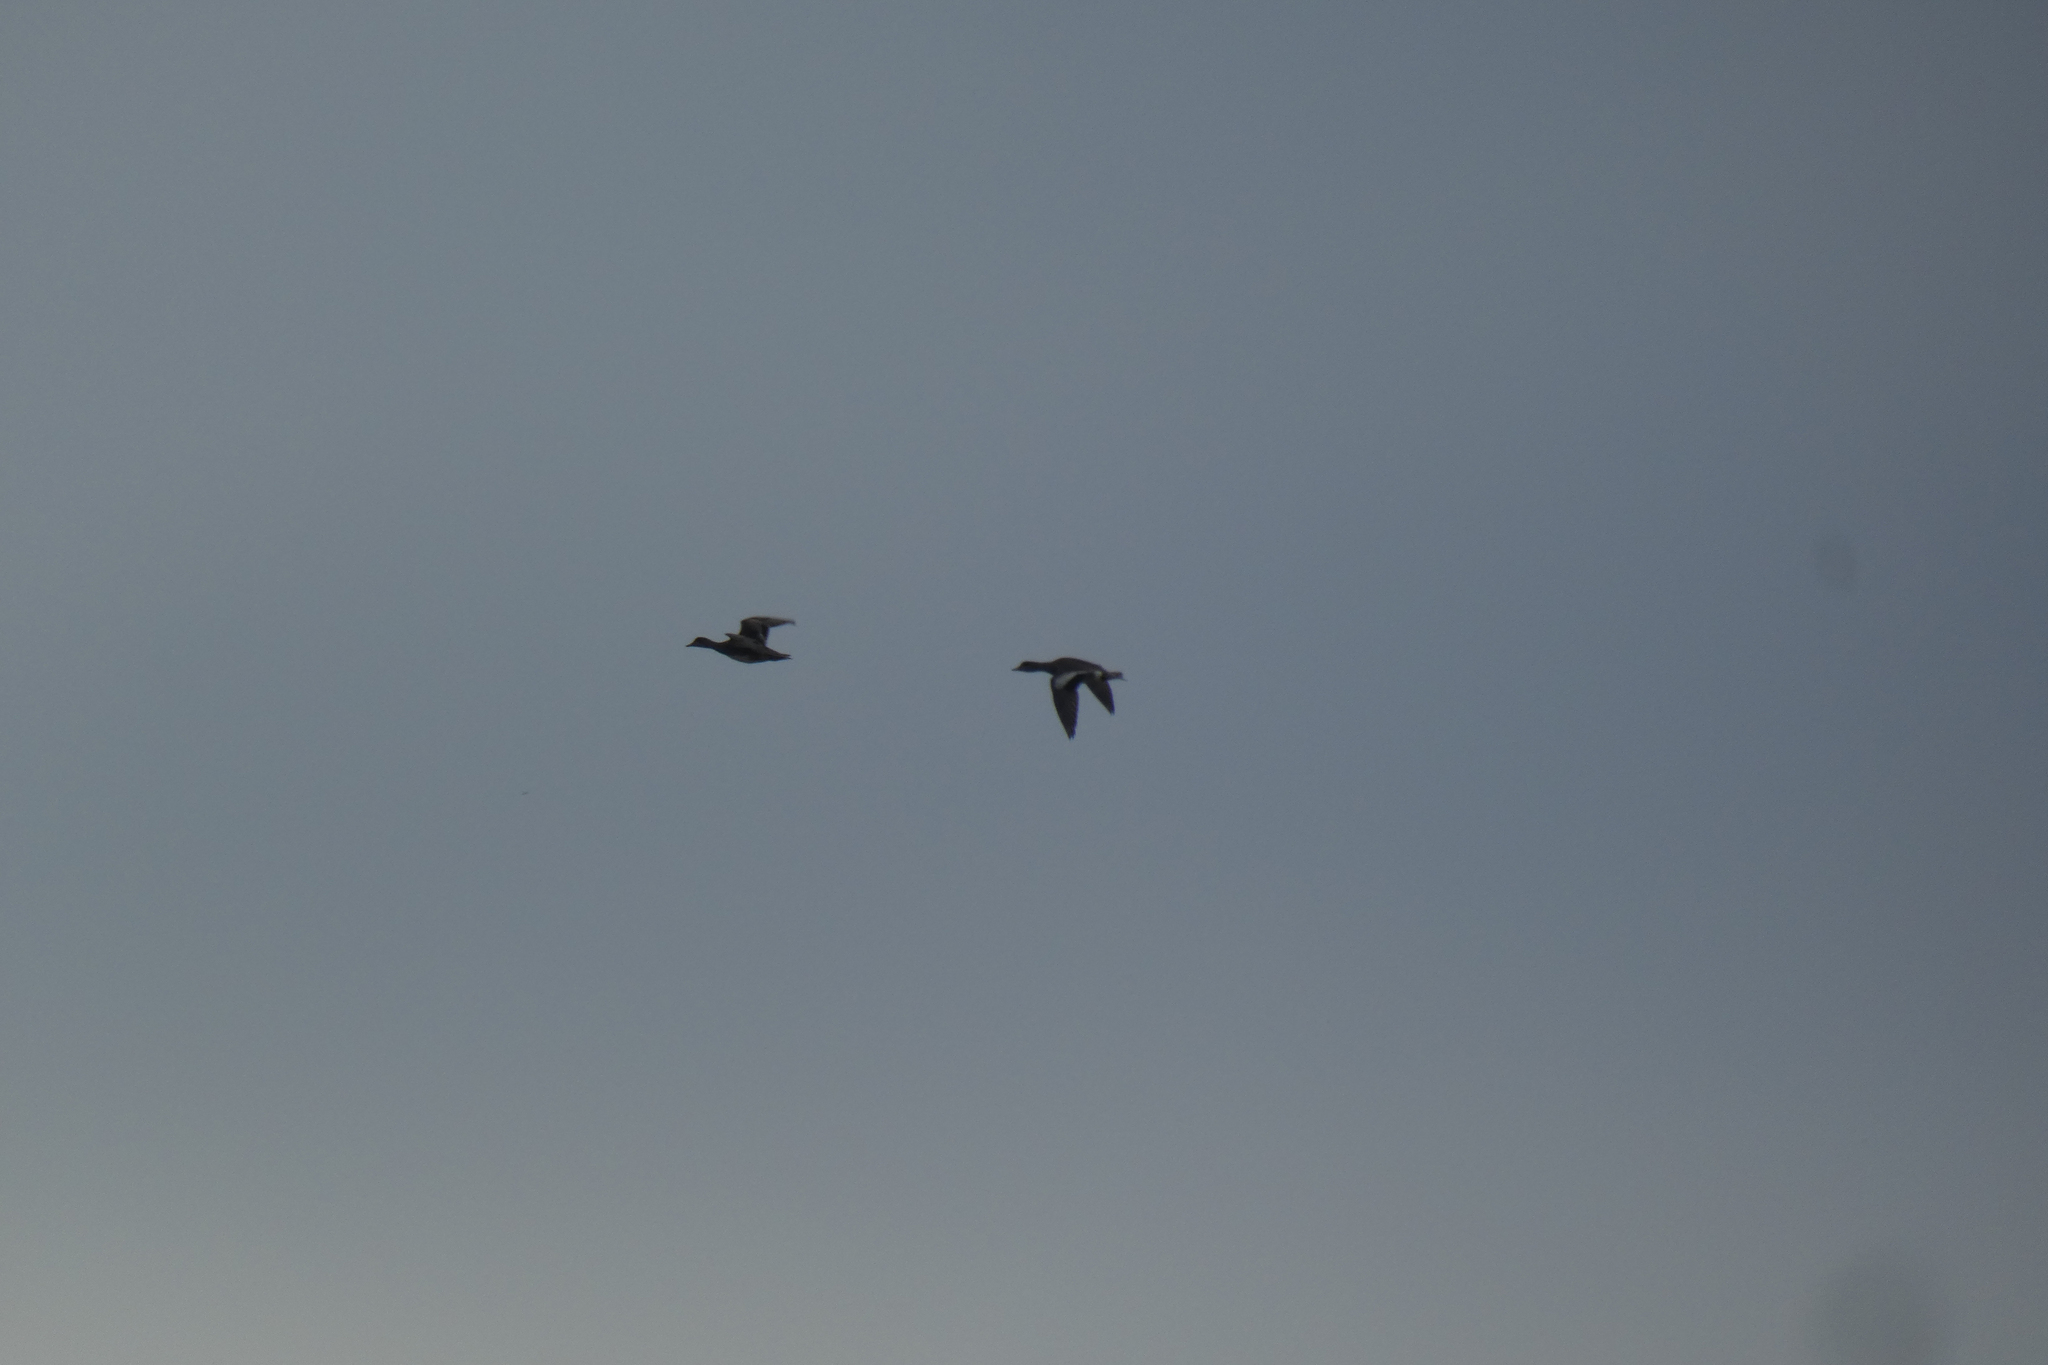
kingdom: Animalia
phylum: Chordata
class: Aves
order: Anseriformes
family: Anatidae
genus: Mareca
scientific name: Mareca americana
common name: American wigeon
